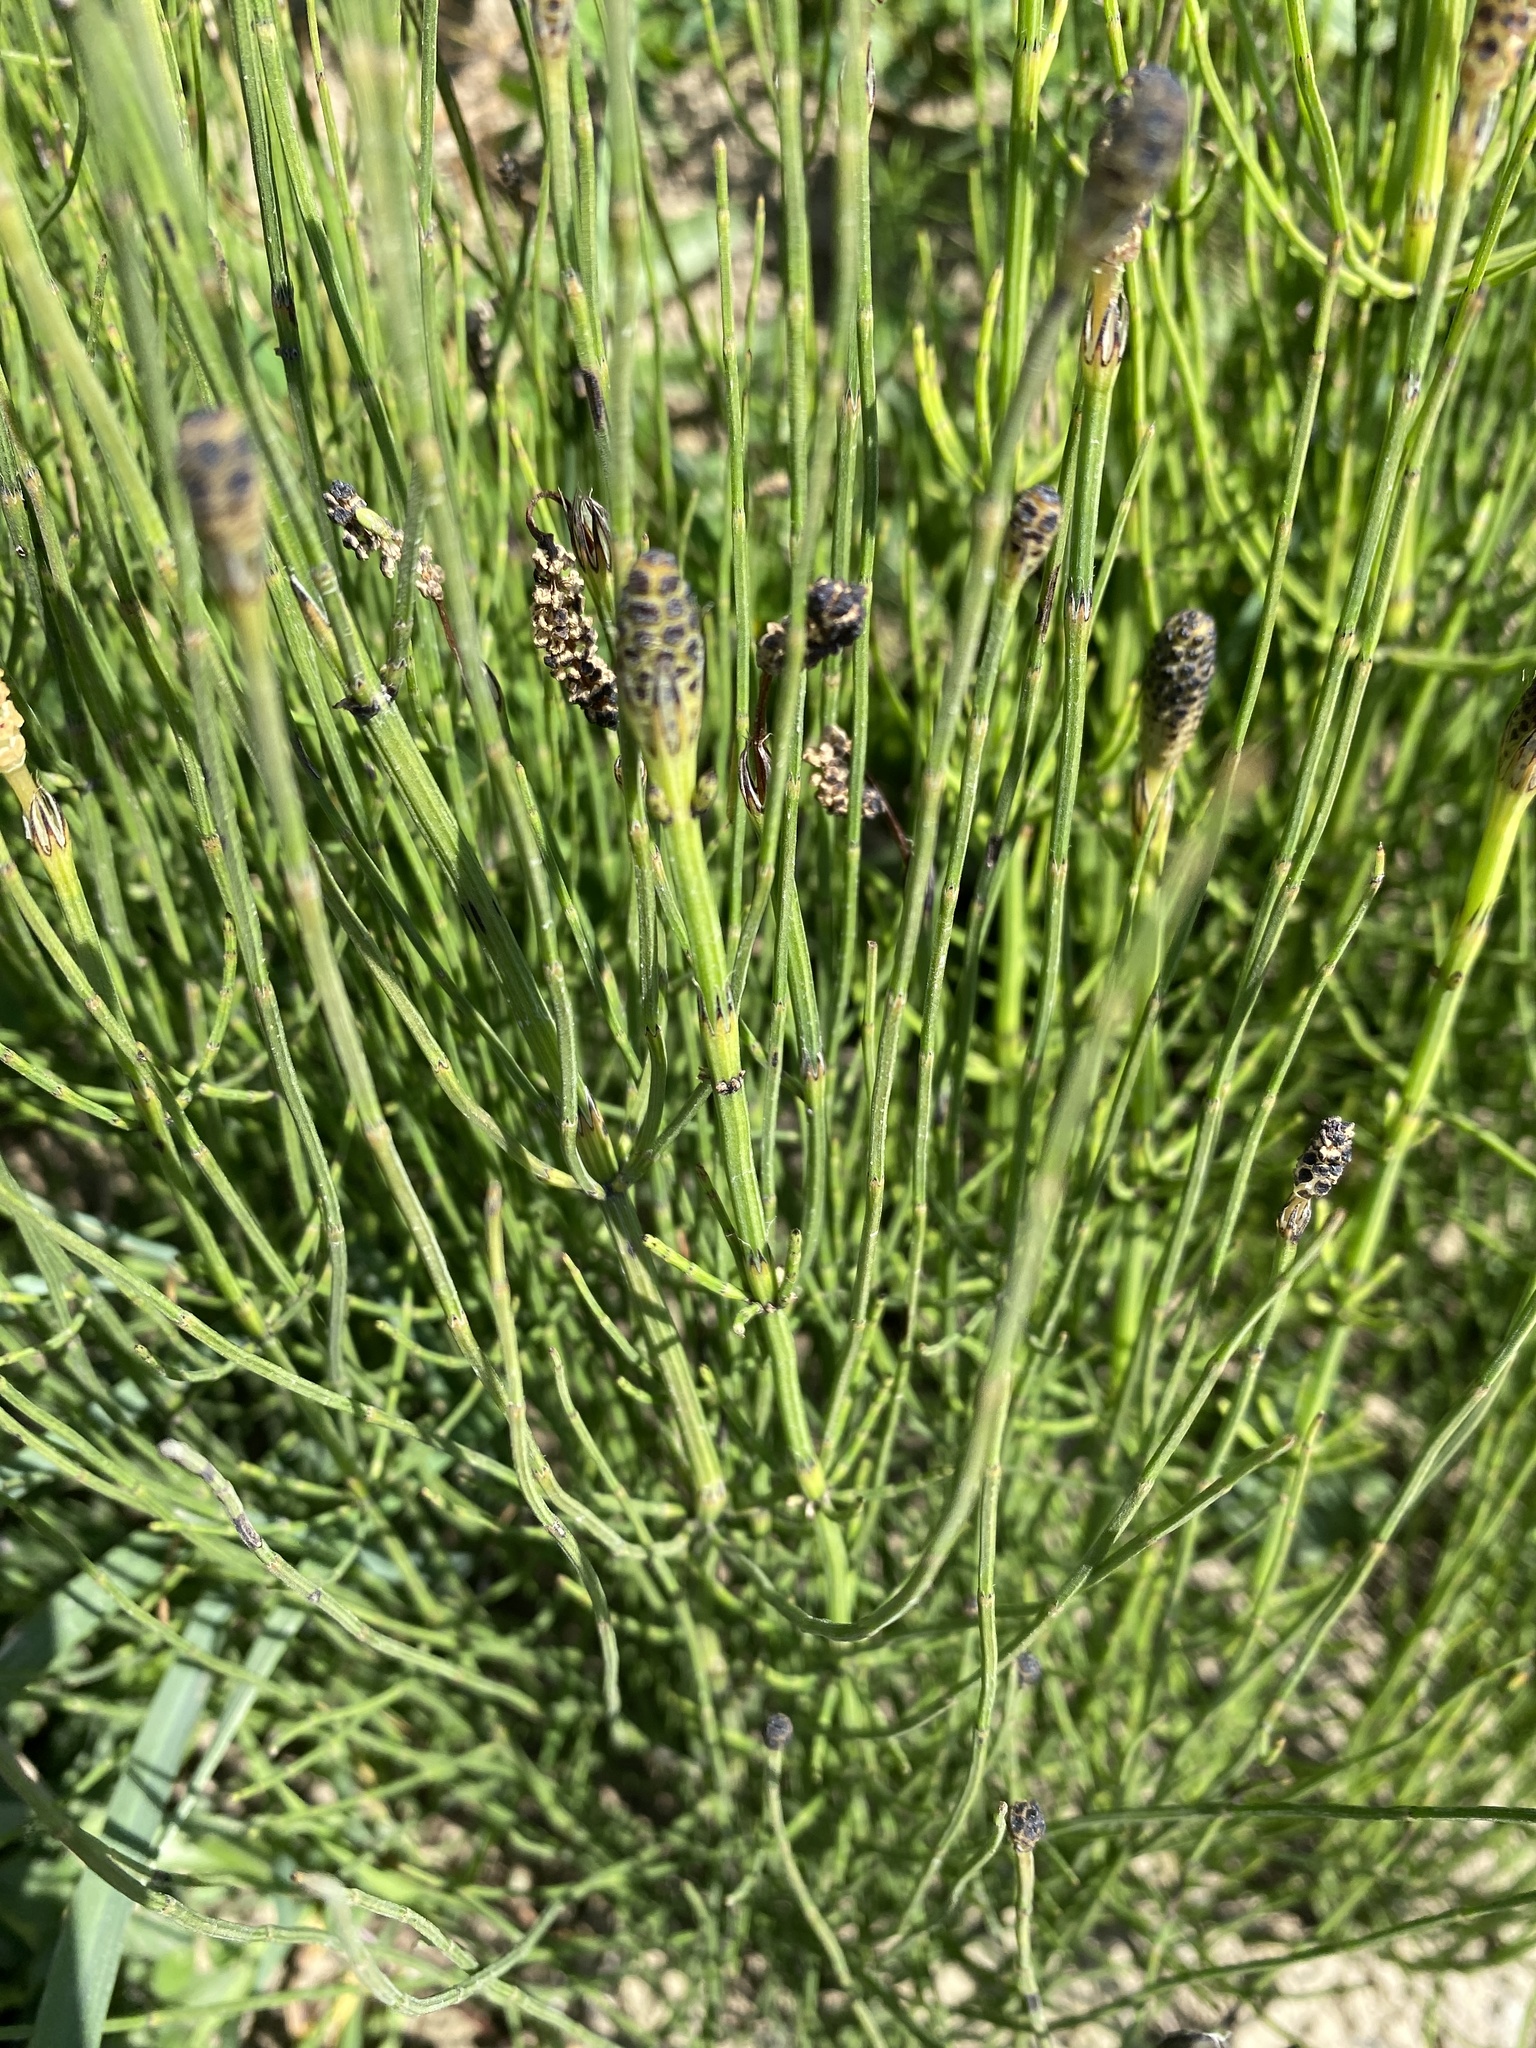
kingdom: Plantae
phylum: Tracheophyta
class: Polypodiopsida
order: Equisetales
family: Equisetaceae
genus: Equisetum
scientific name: Equisetum palustre
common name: Marsh horsetail
